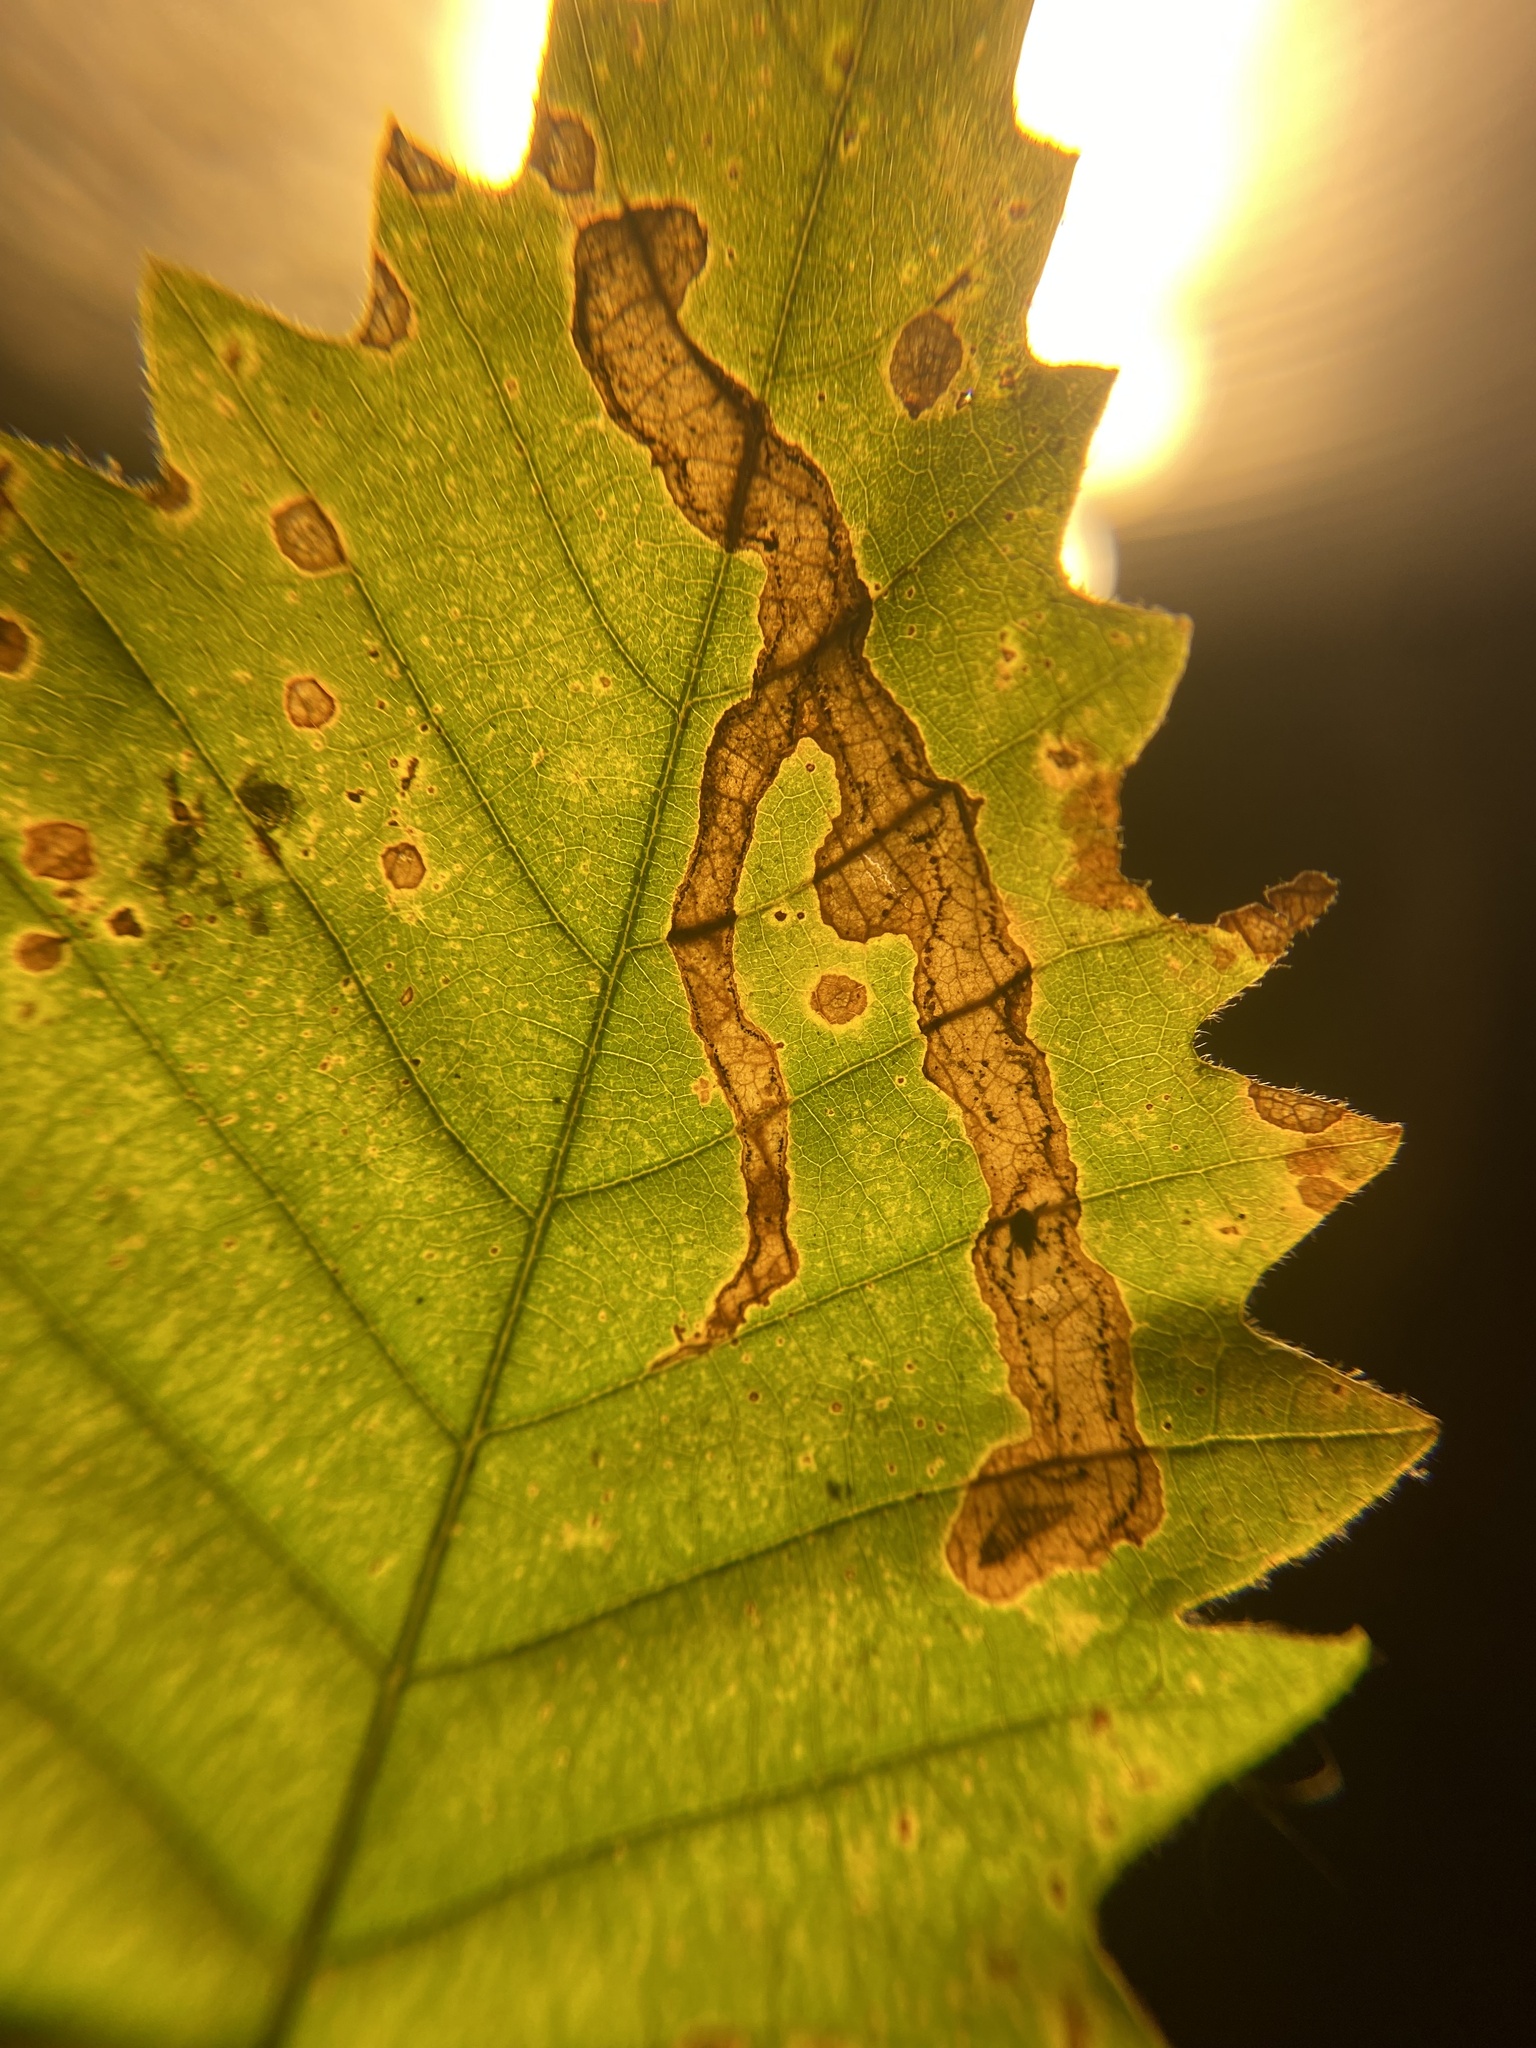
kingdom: Animalia
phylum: Arthropoda
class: Insecta
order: Lepidoptera
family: Gracillariidae
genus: Cameraria
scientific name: Cameraria tubiferella
